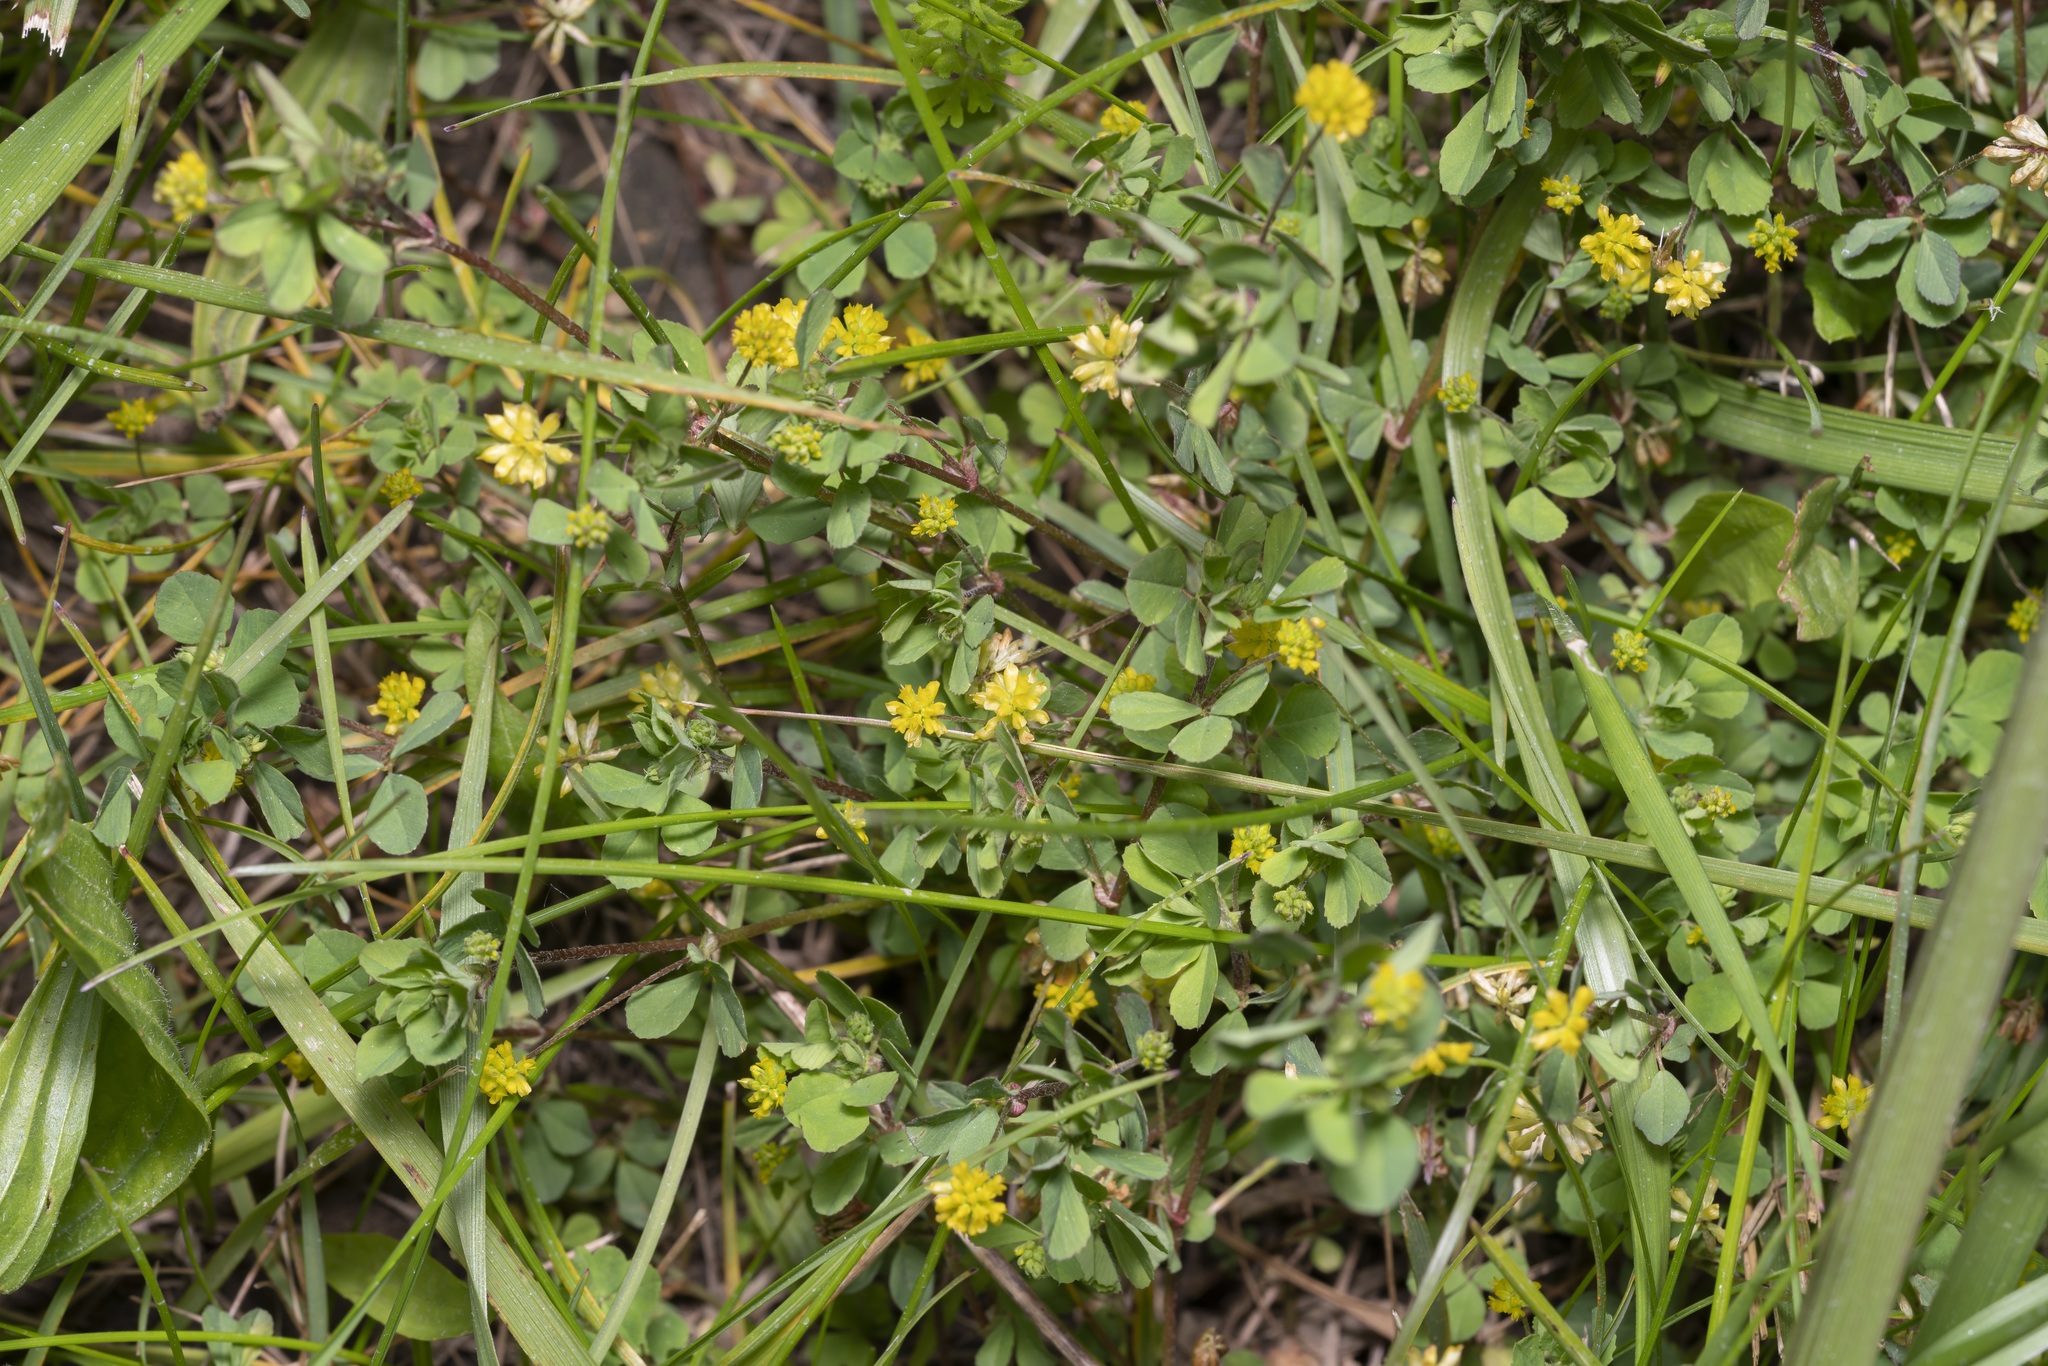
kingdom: Plantae
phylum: Tracheophyta
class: Magnoliopsida
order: Fabales
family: Fabaceae
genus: Trifolium
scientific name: Trifolium dubium
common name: Suckling clover
